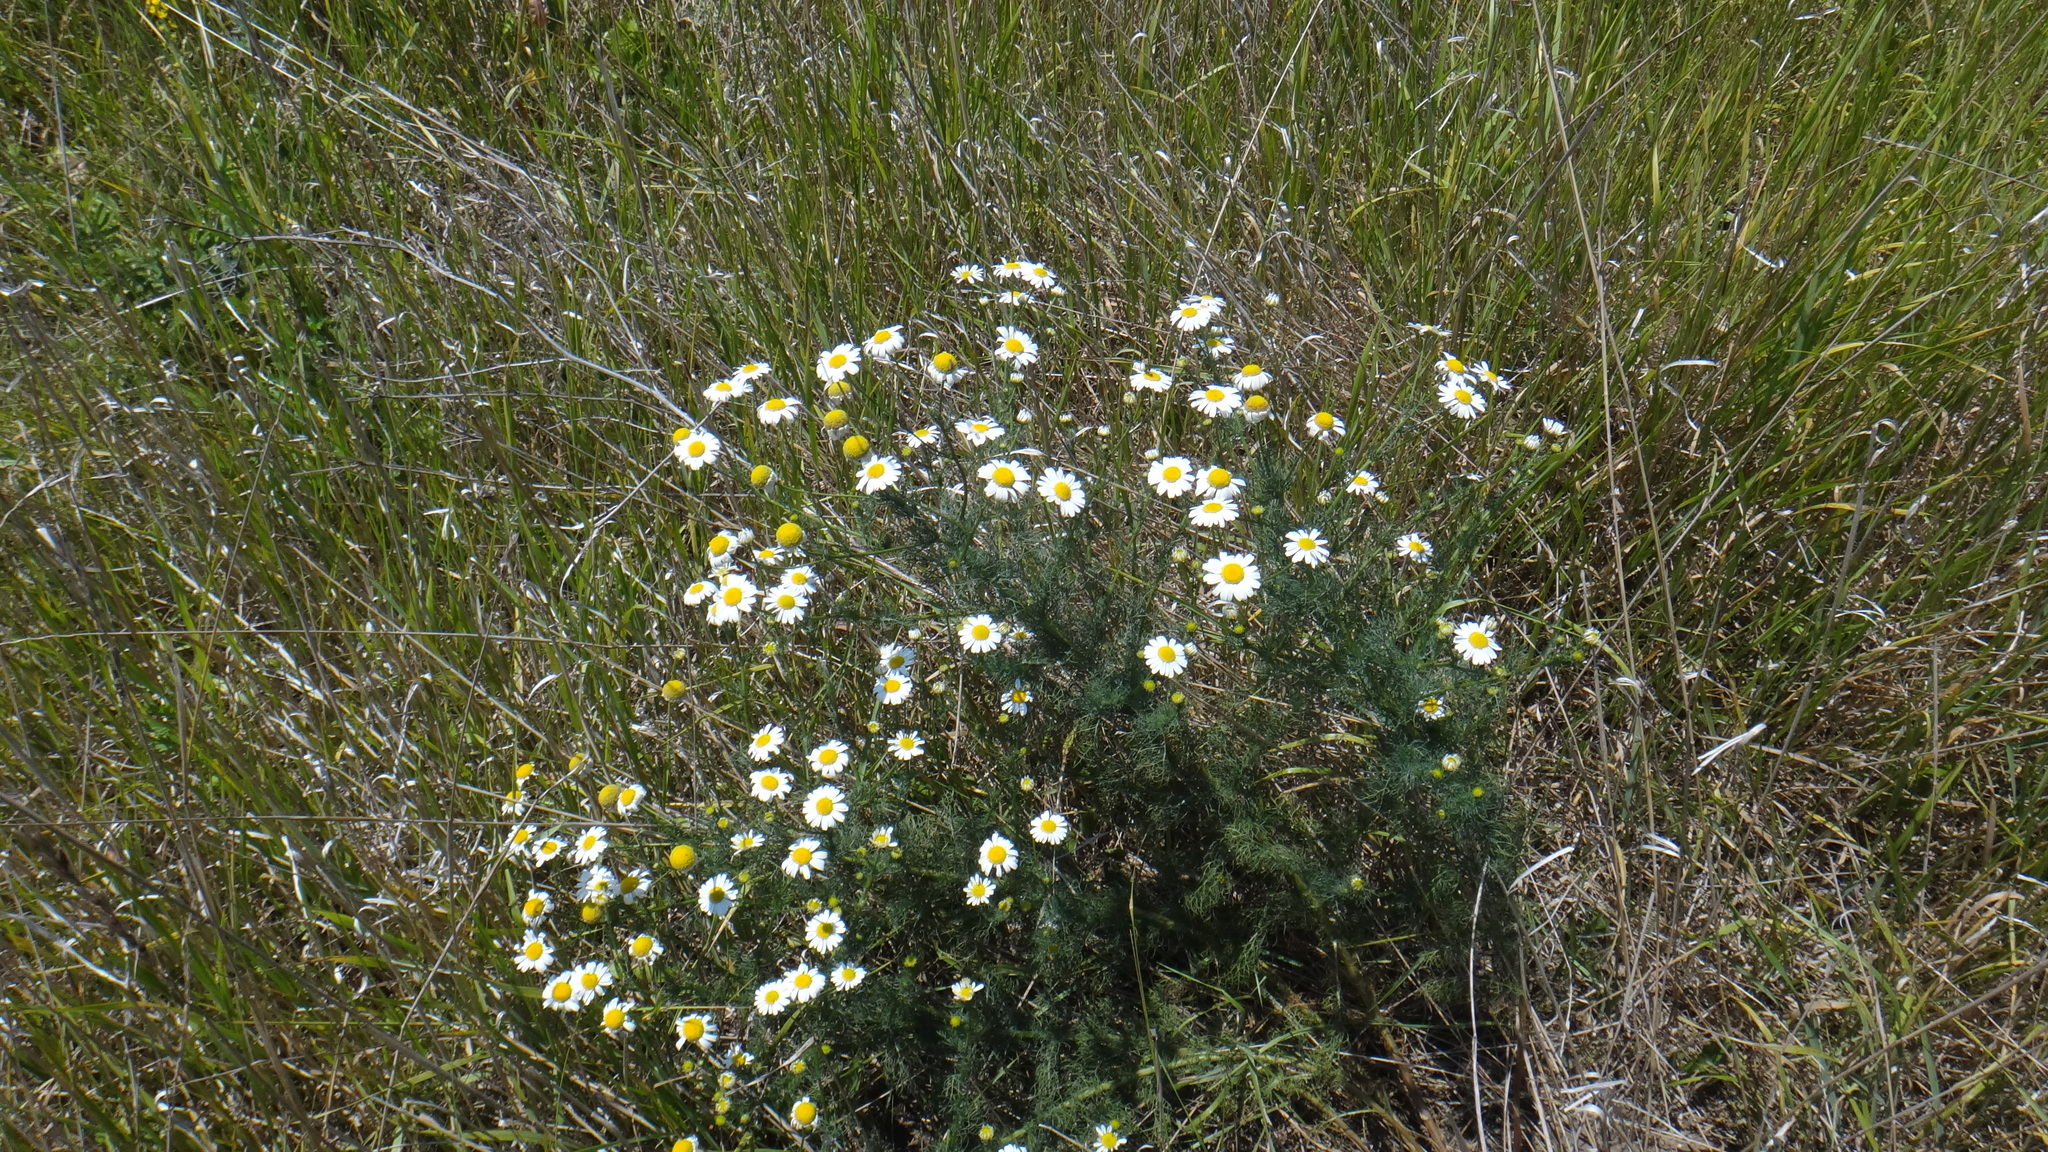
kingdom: Plantae
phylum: Tracheophyta
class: Magnoliopsida
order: Asterales
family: Asteraceae
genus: Tripleurospermum
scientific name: Tripleurospermum inodorum
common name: Scentless mayweed
